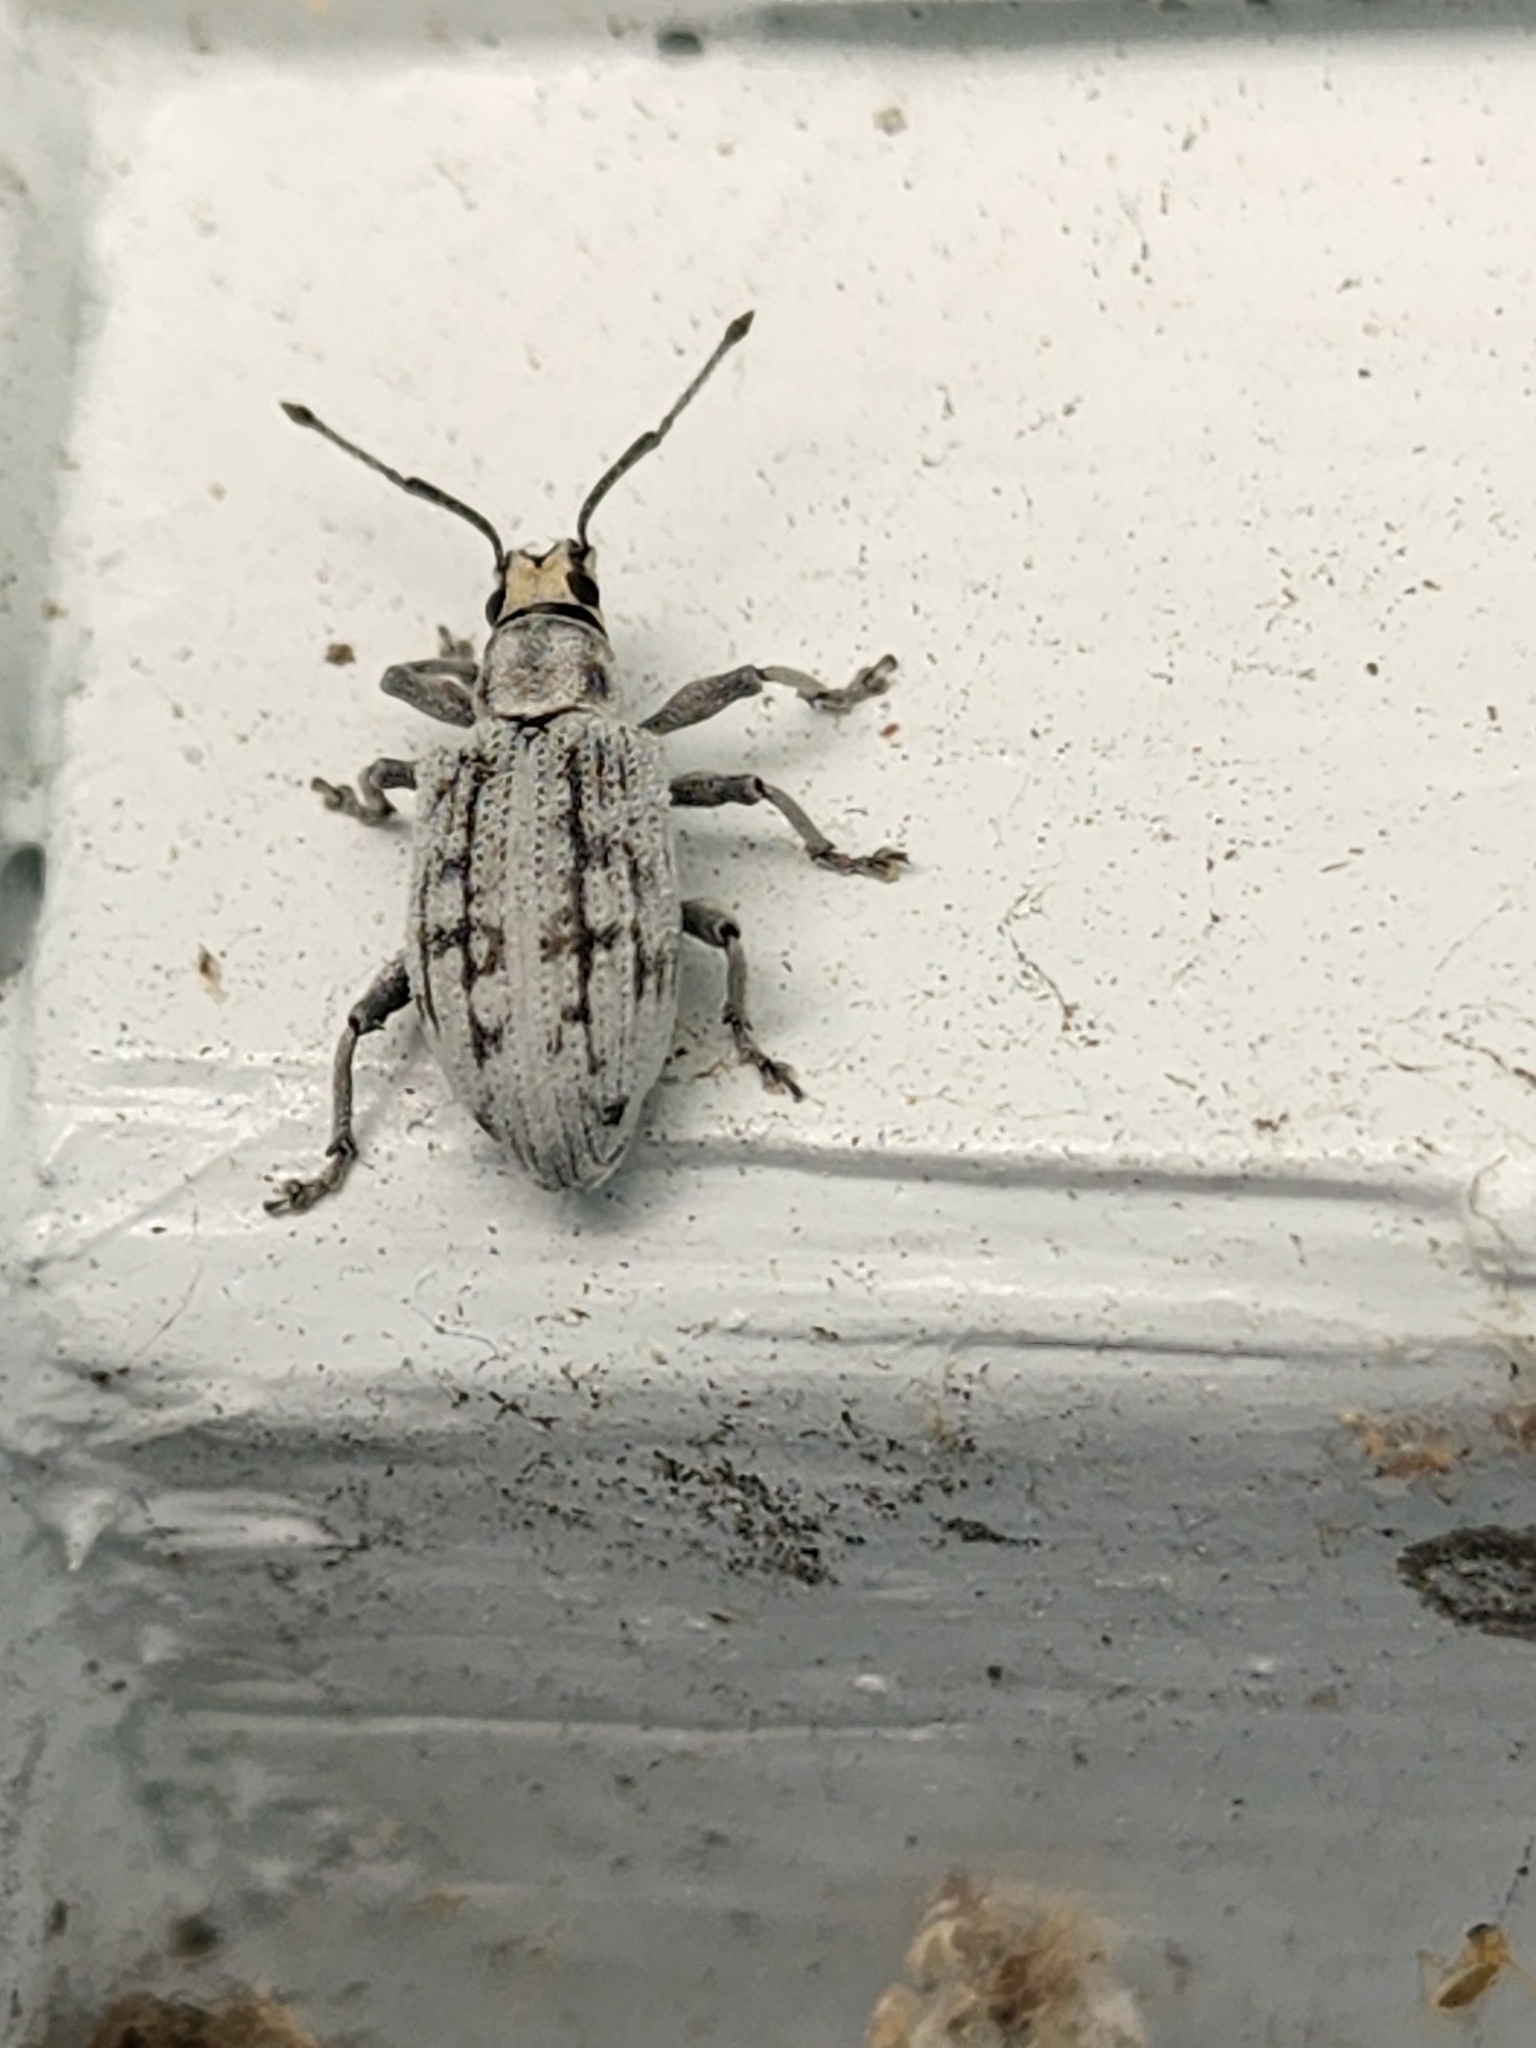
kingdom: Animalia
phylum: Arthropoda
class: Insecta
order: Coleoptera
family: Curculionidae
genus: Myllocerus
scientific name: Myllocerus undecimpustulatus
